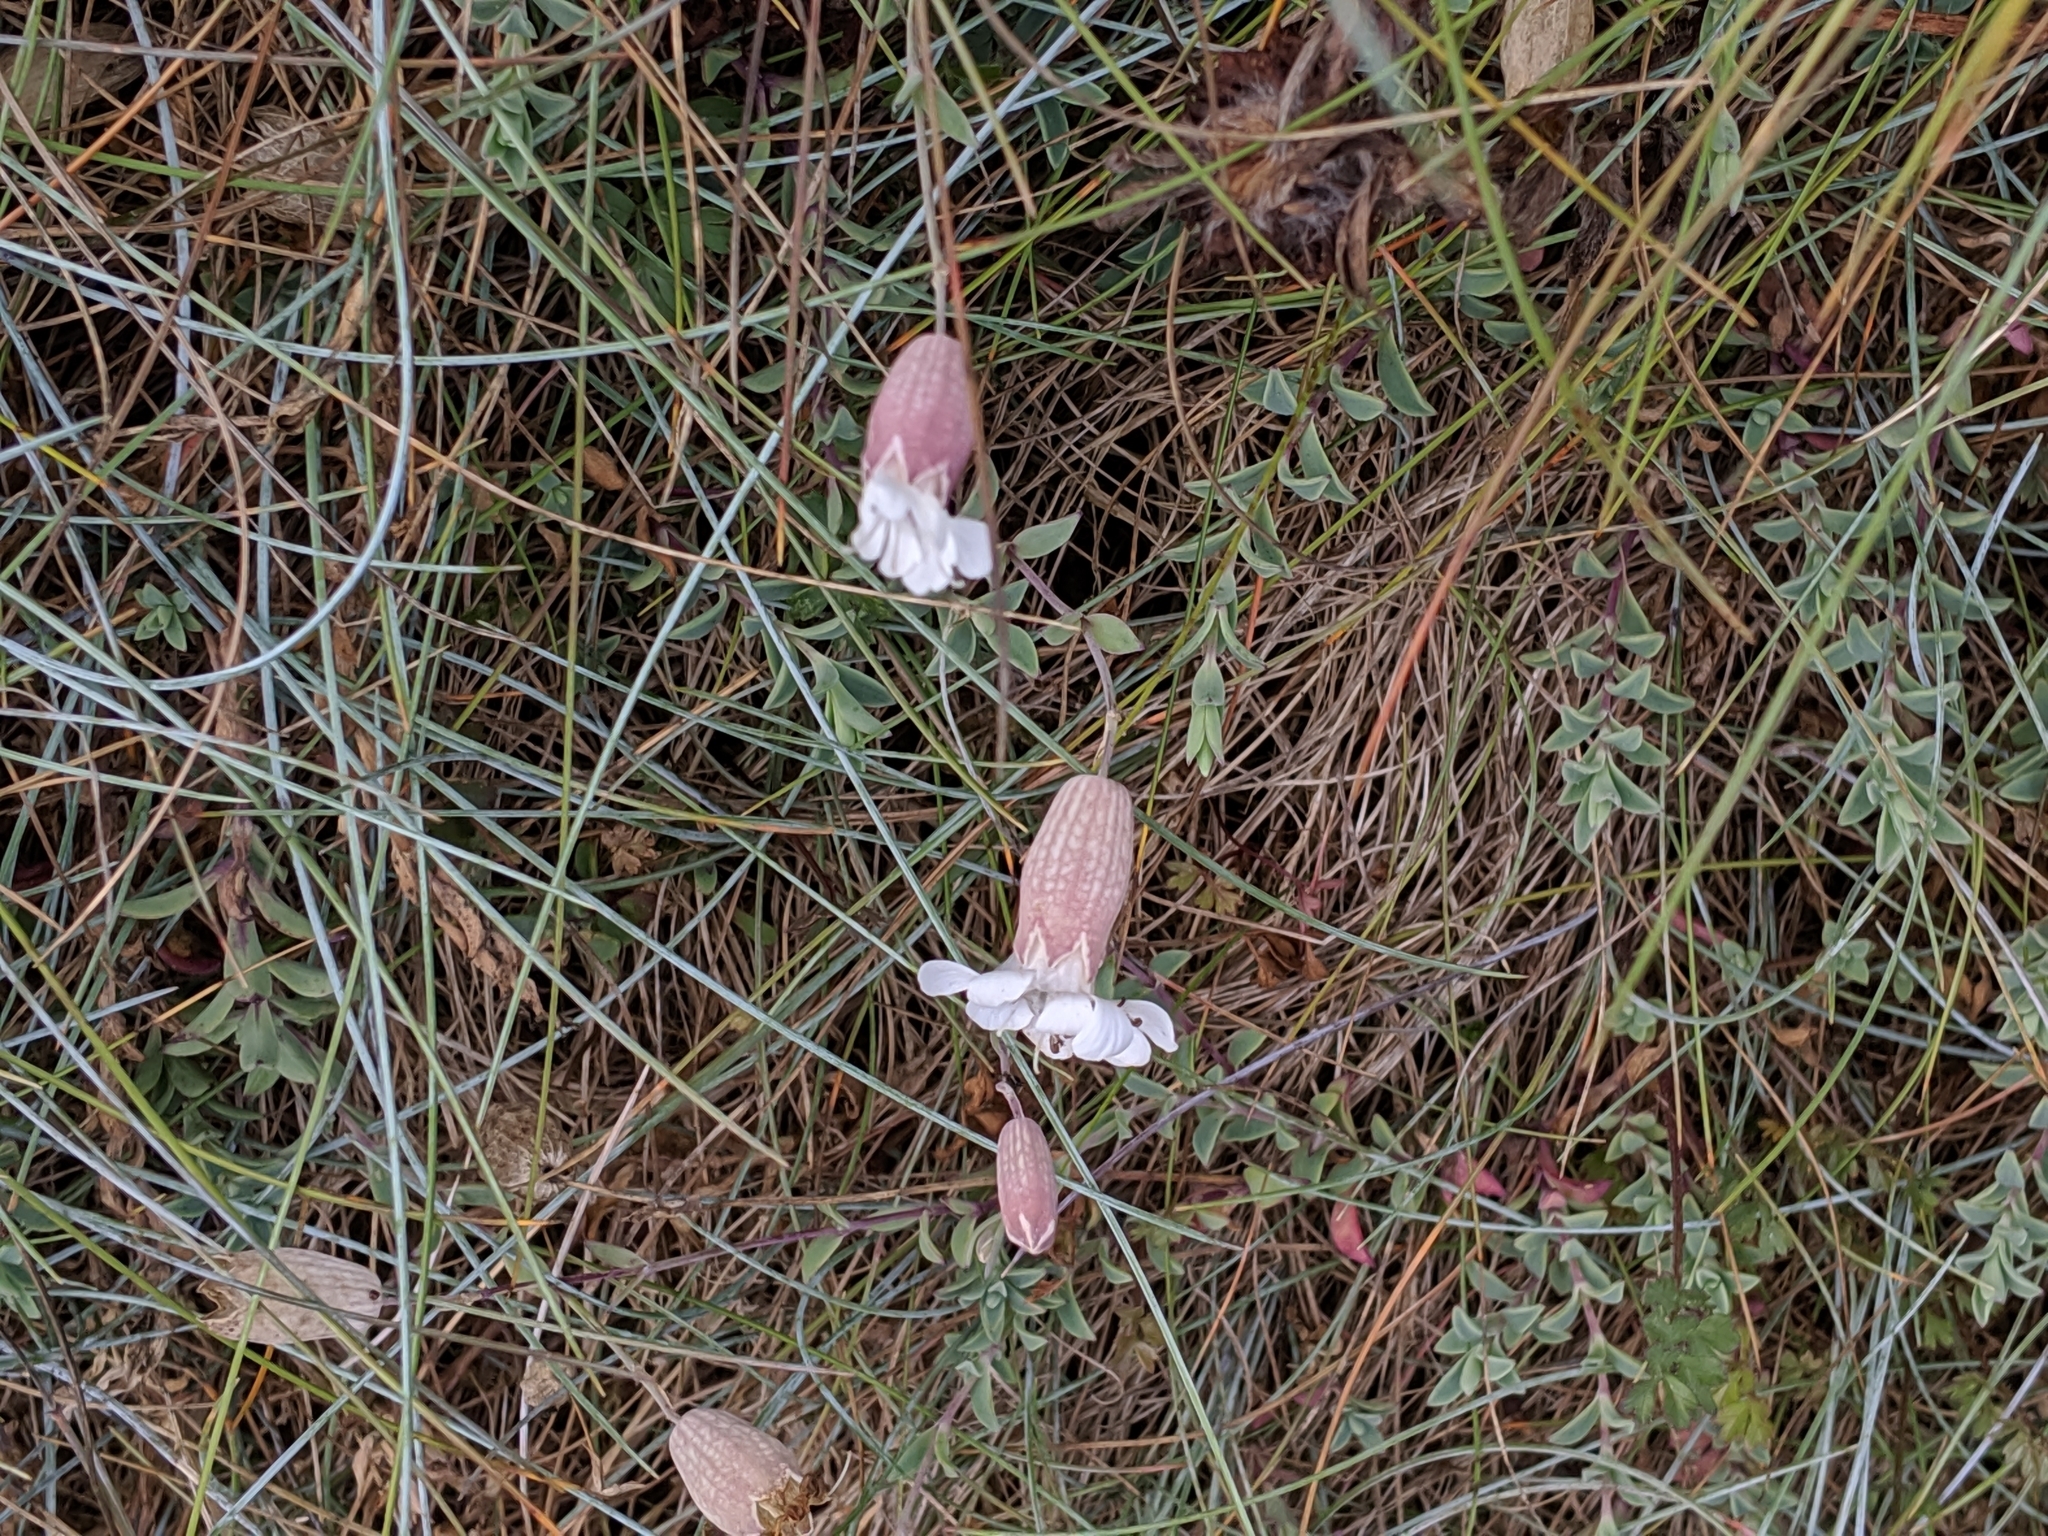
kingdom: Plantae
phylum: Tracheophyta
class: Magnoliopsida
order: Caryophyllales
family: Caryophyllaceae
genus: Silene
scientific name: Silene uniflora
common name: Sea campion
